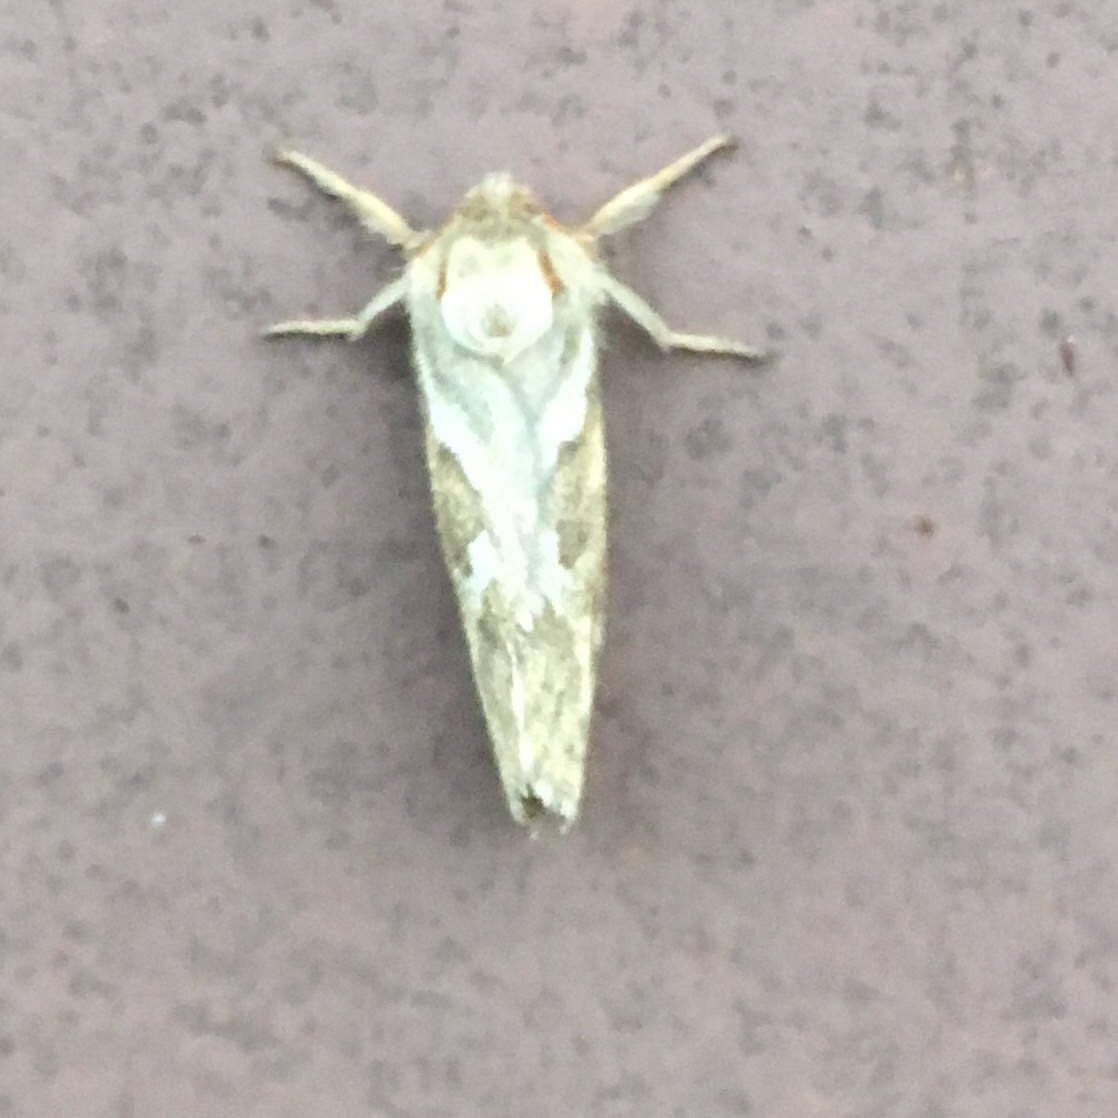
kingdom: Animalia
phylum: Arthropoda
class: Insecta
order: Lepidoptera
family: Hepialidae
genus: Korscheltellus
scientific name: Korscheltellus lupulina
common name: Common swift
